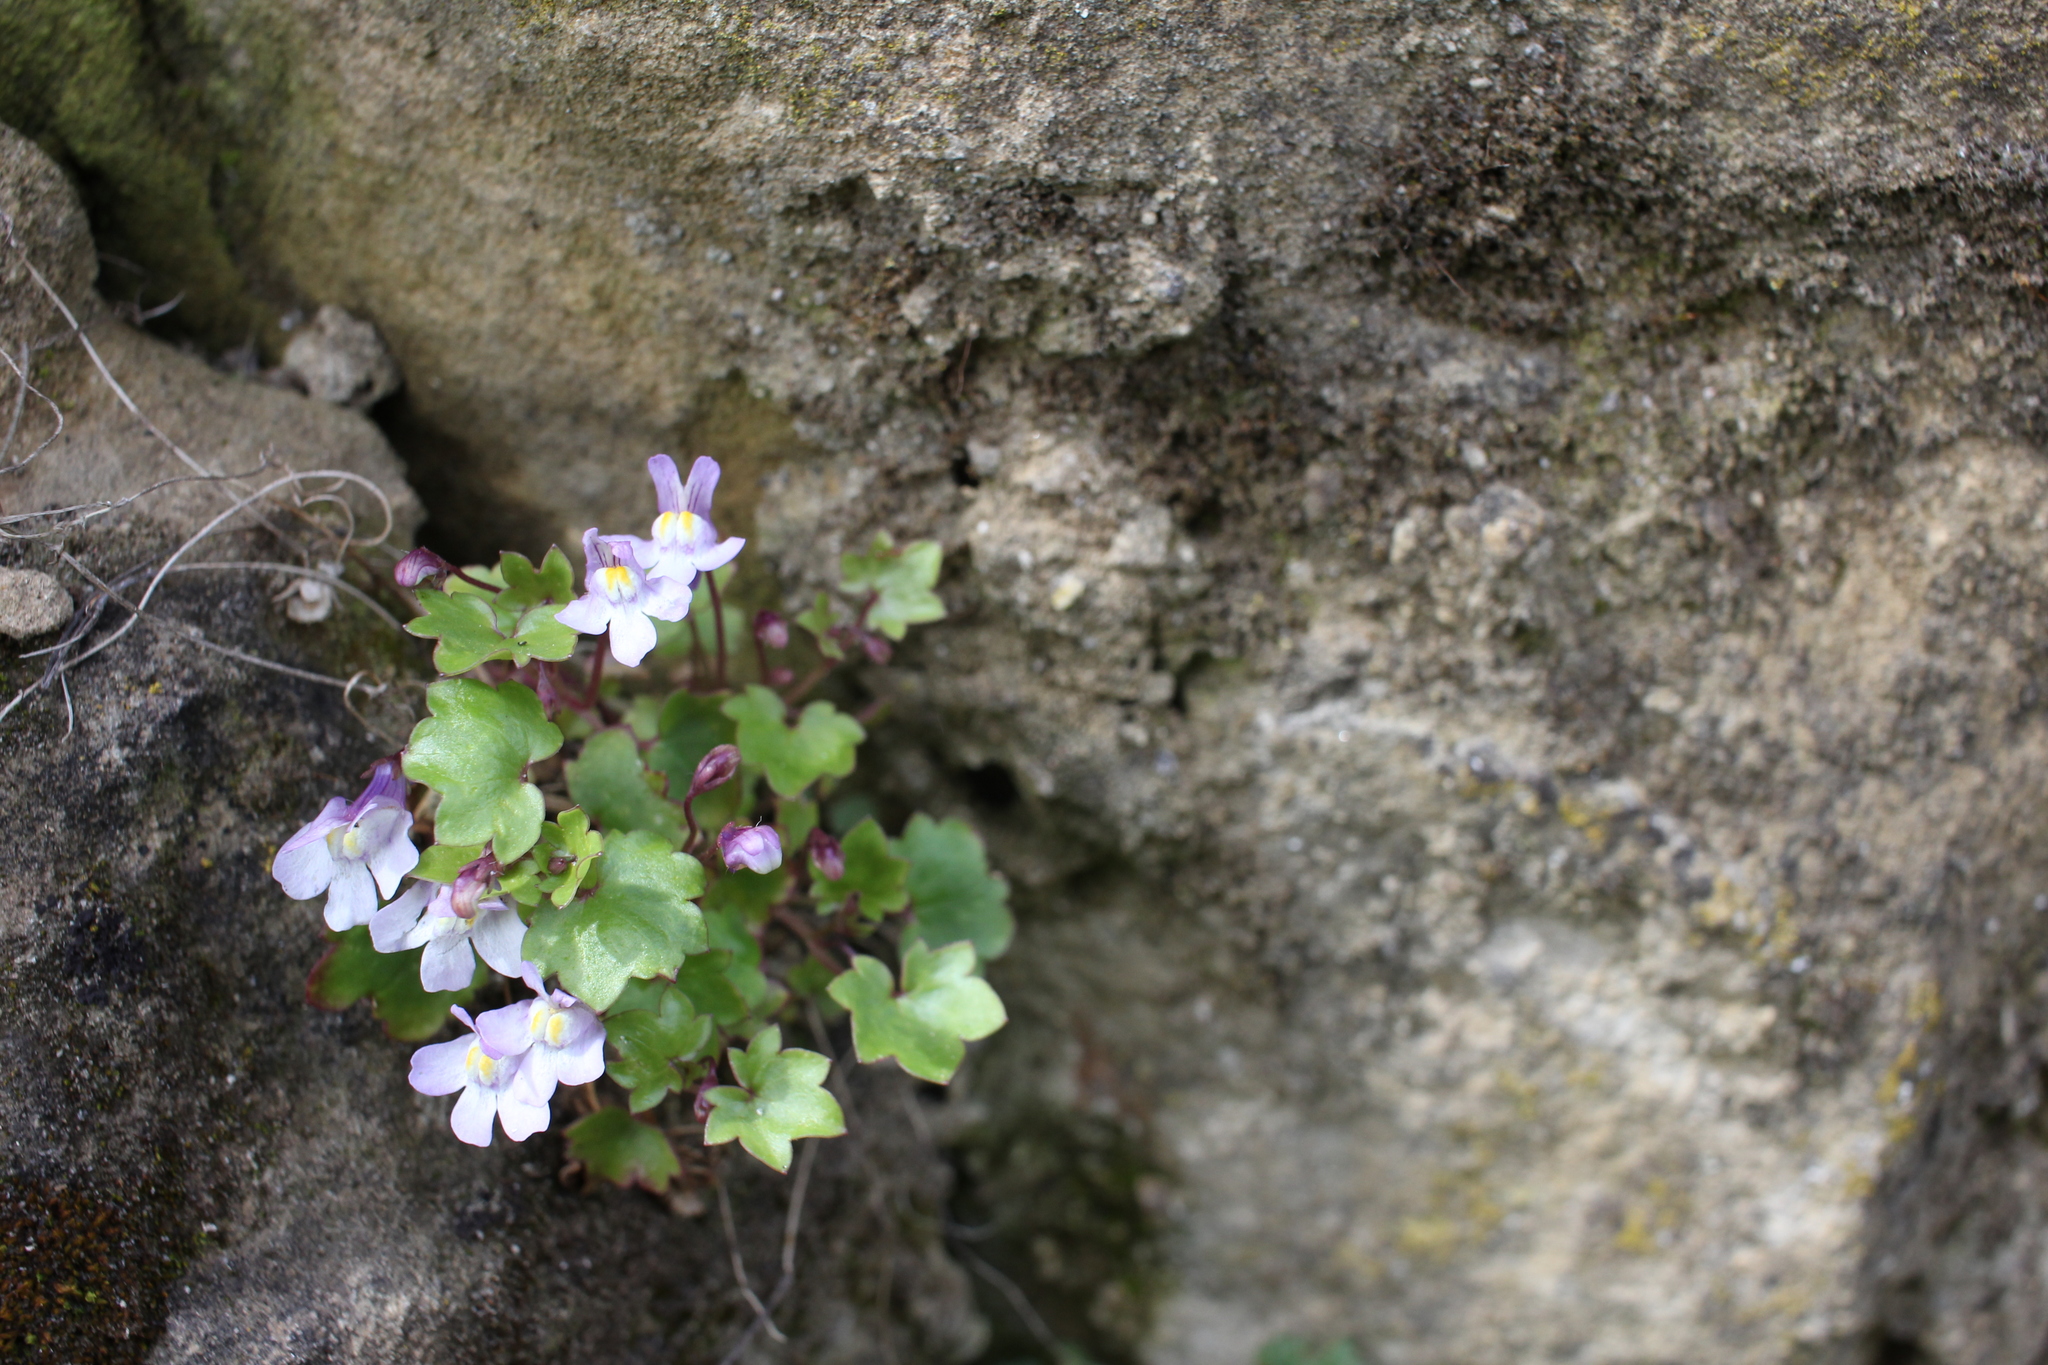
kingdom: Plantae
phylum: Tracheophyta
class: Magnoliopsida
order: Lamiales
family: Plantaginaceae
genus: Cymbalaria
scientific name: Cymbalaria muralis
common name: Ivy-leaved toadflax
